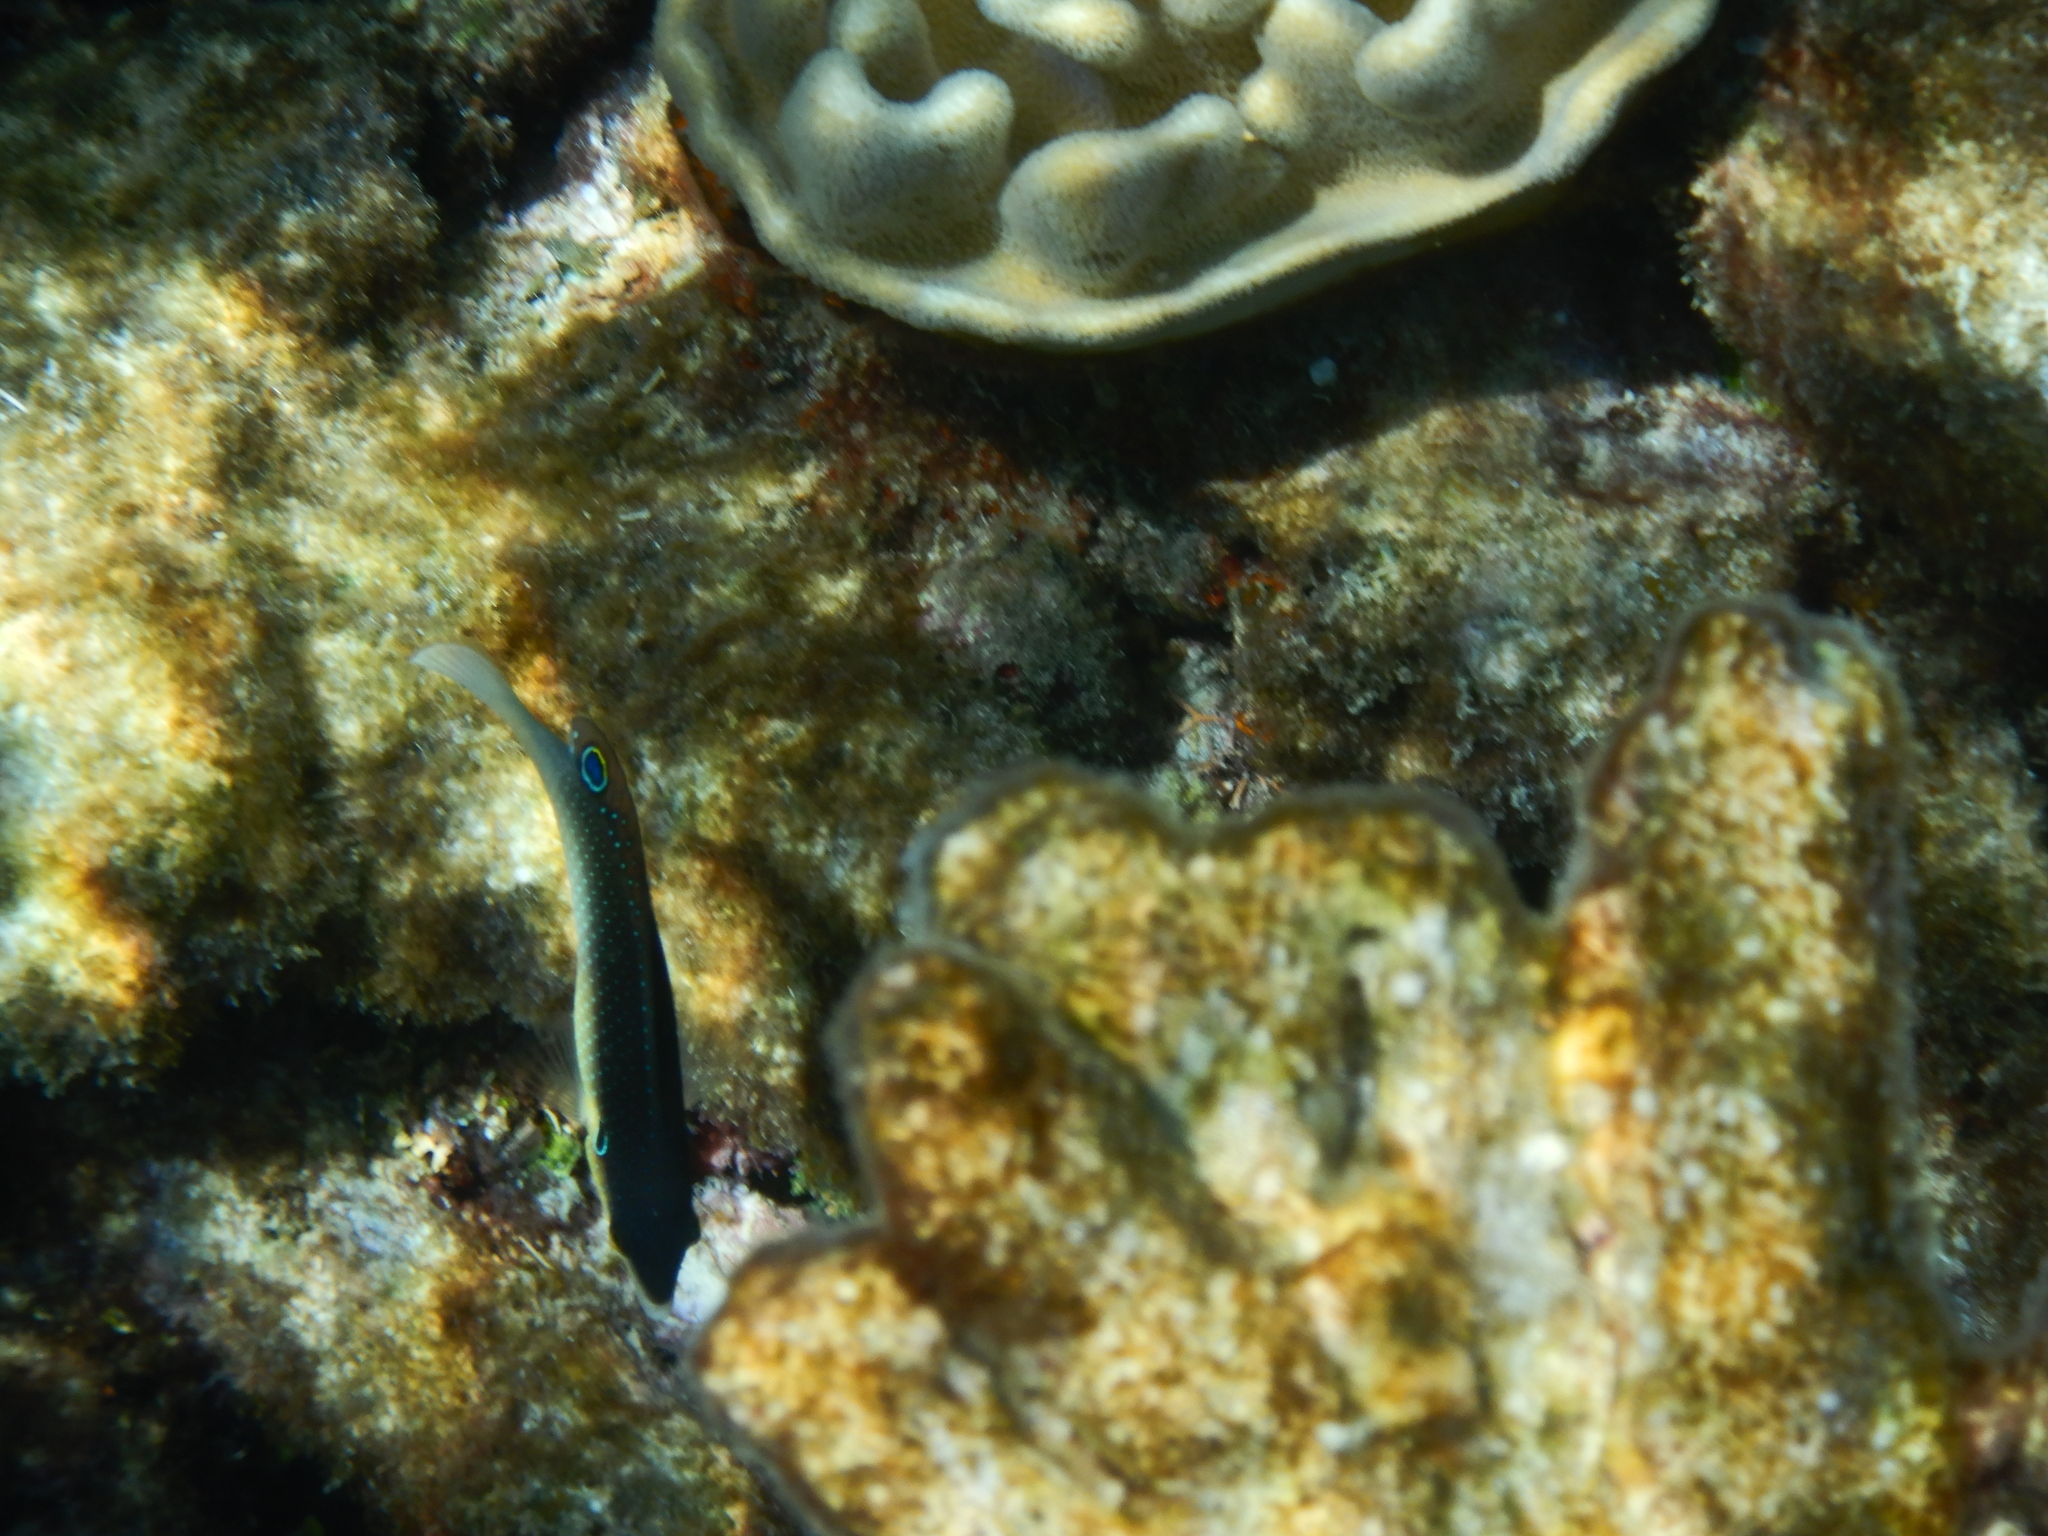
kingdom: Animalia
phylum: Chordata
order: Perciformes
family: Labridae
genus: Anampses
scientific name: Anampses neoguinaicus
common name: New guinea wrasse
